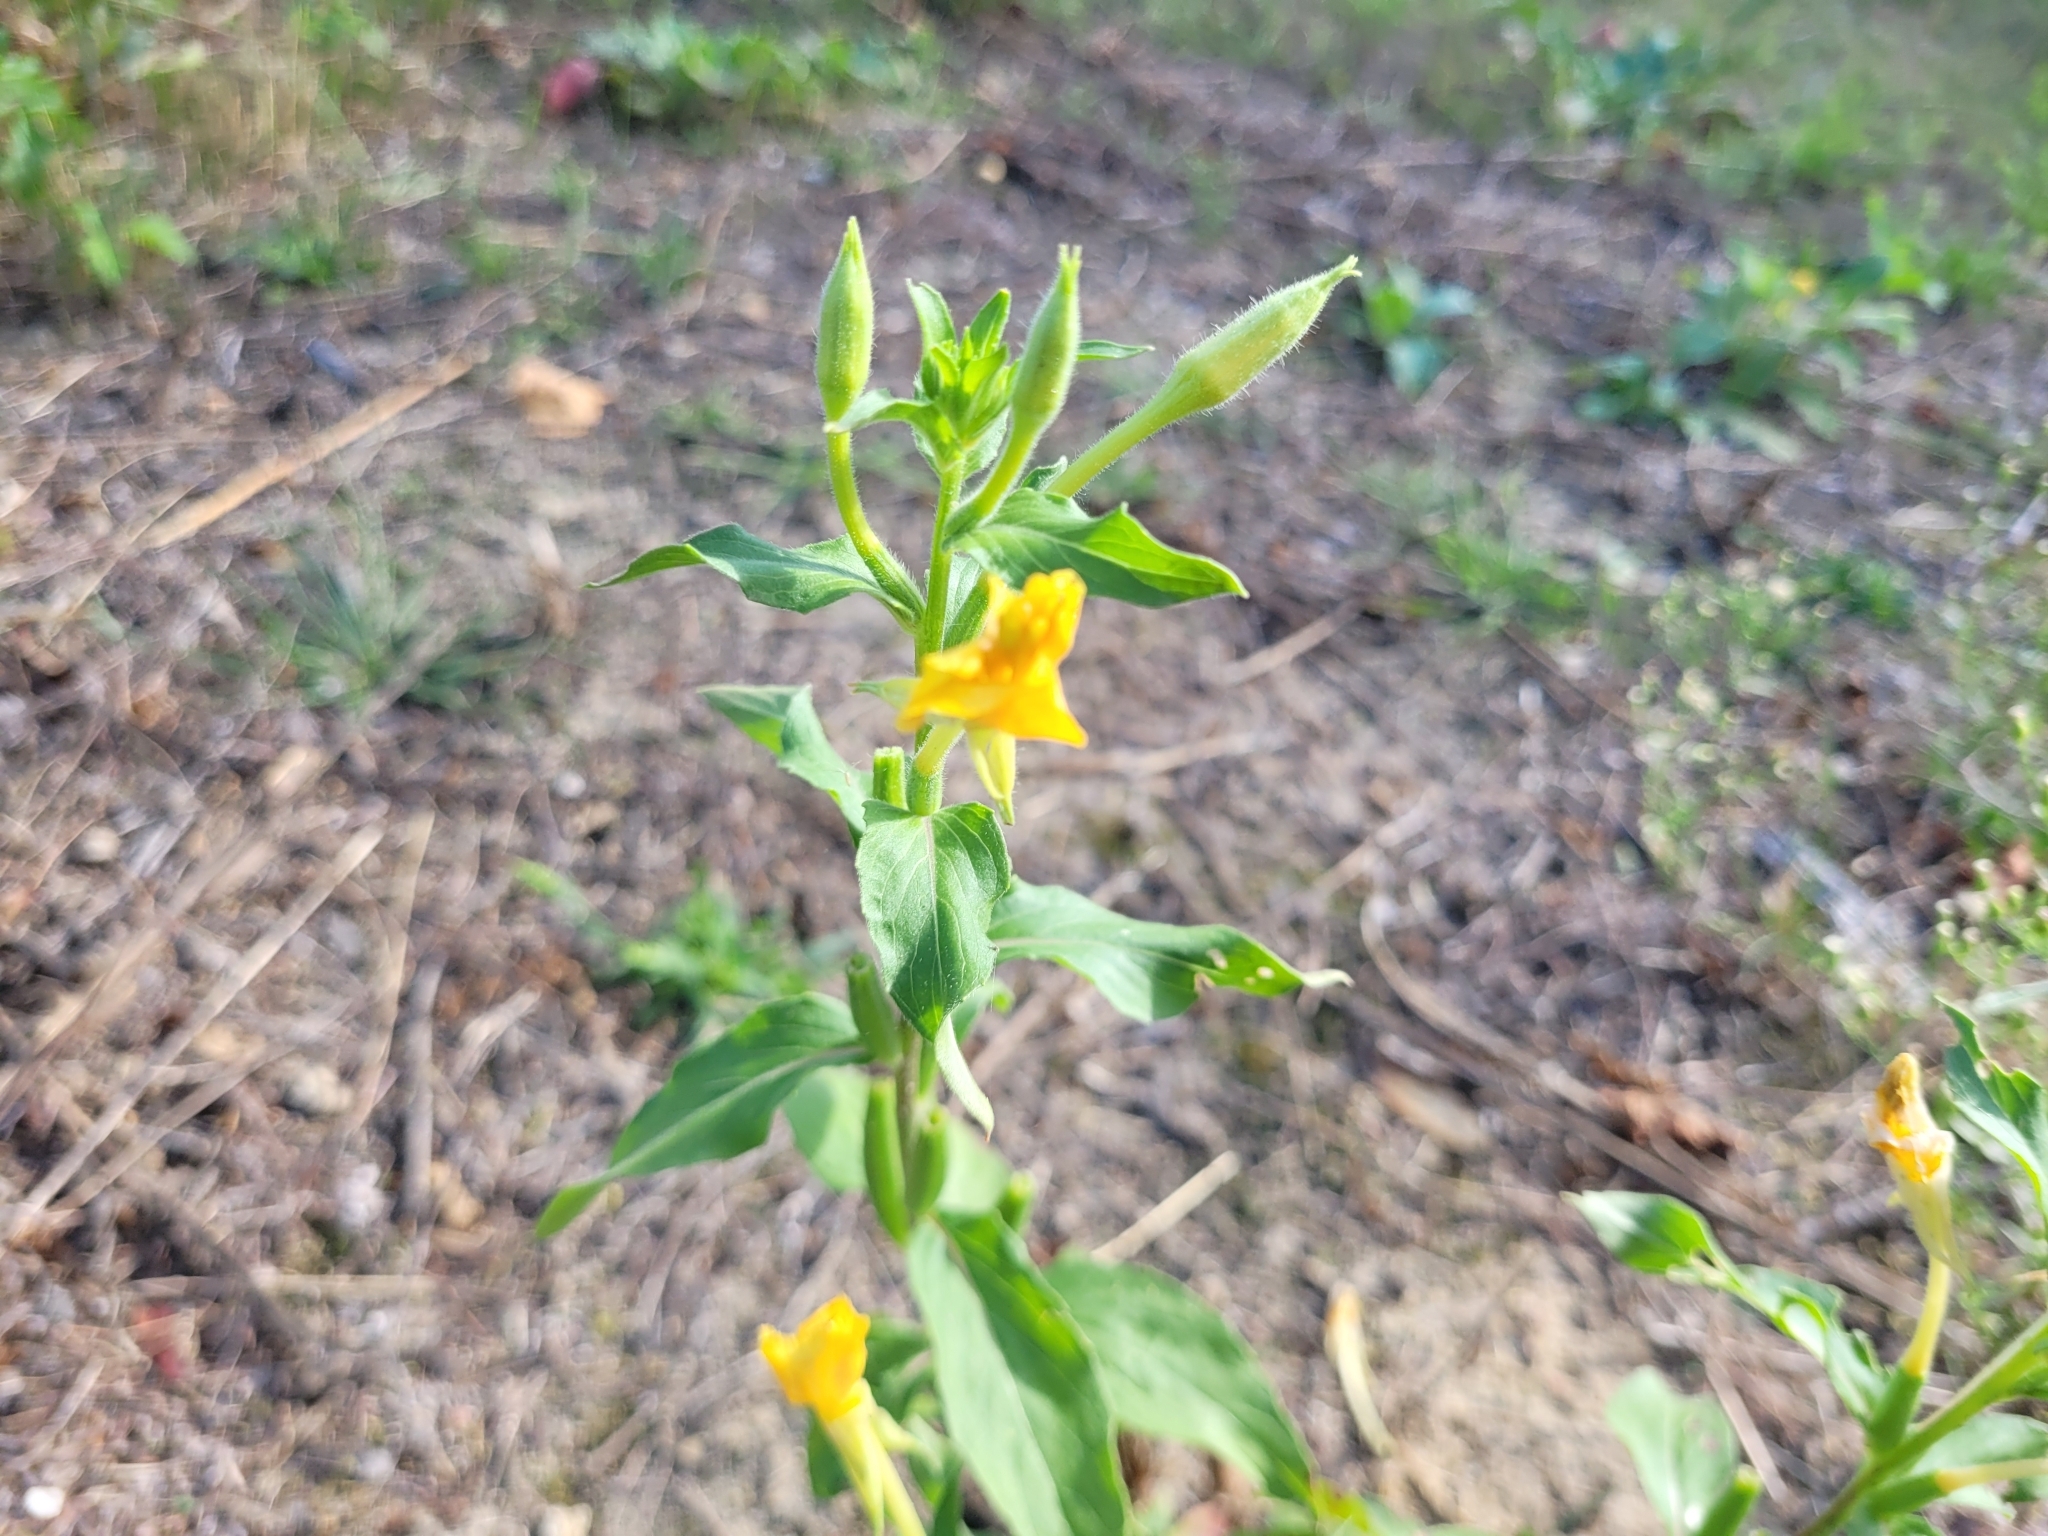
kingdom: Plantae
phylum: Tracheophyta
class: Magnoliopsida
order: Myrtales
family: Onagraceae
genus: Oenothera
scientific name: Oenothera biennis
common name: Common evening-primrose
